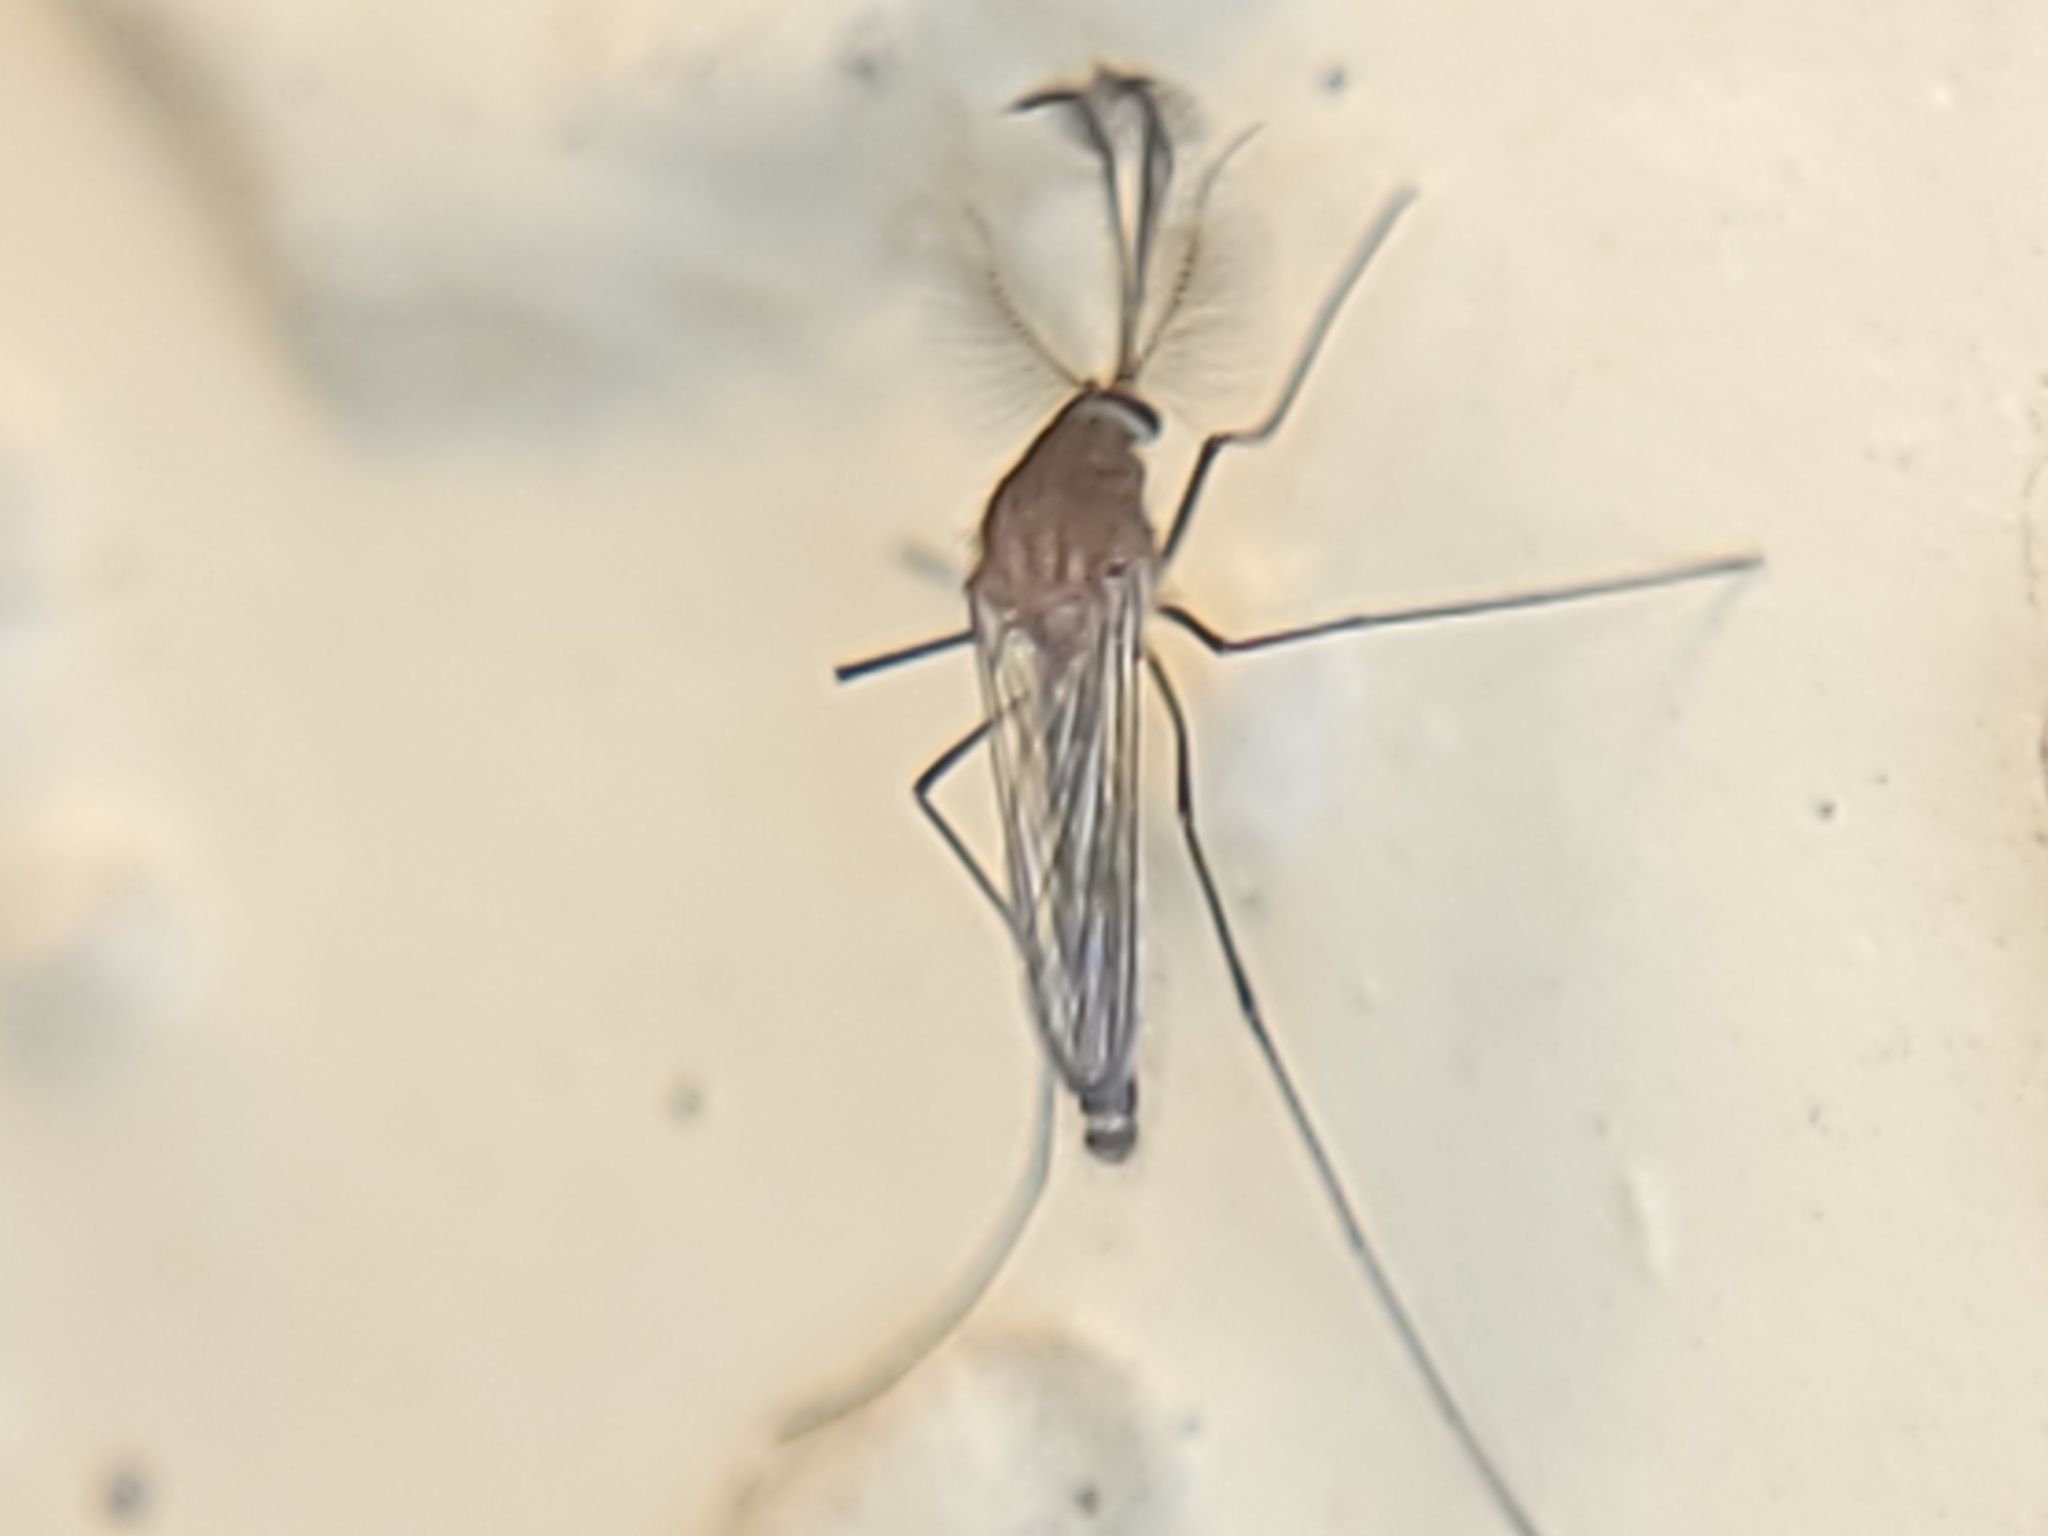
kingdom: Animalia
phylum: Arthropoda
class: Insecta
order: Diptera
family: Culicidae
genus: Culex
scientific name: Culex
